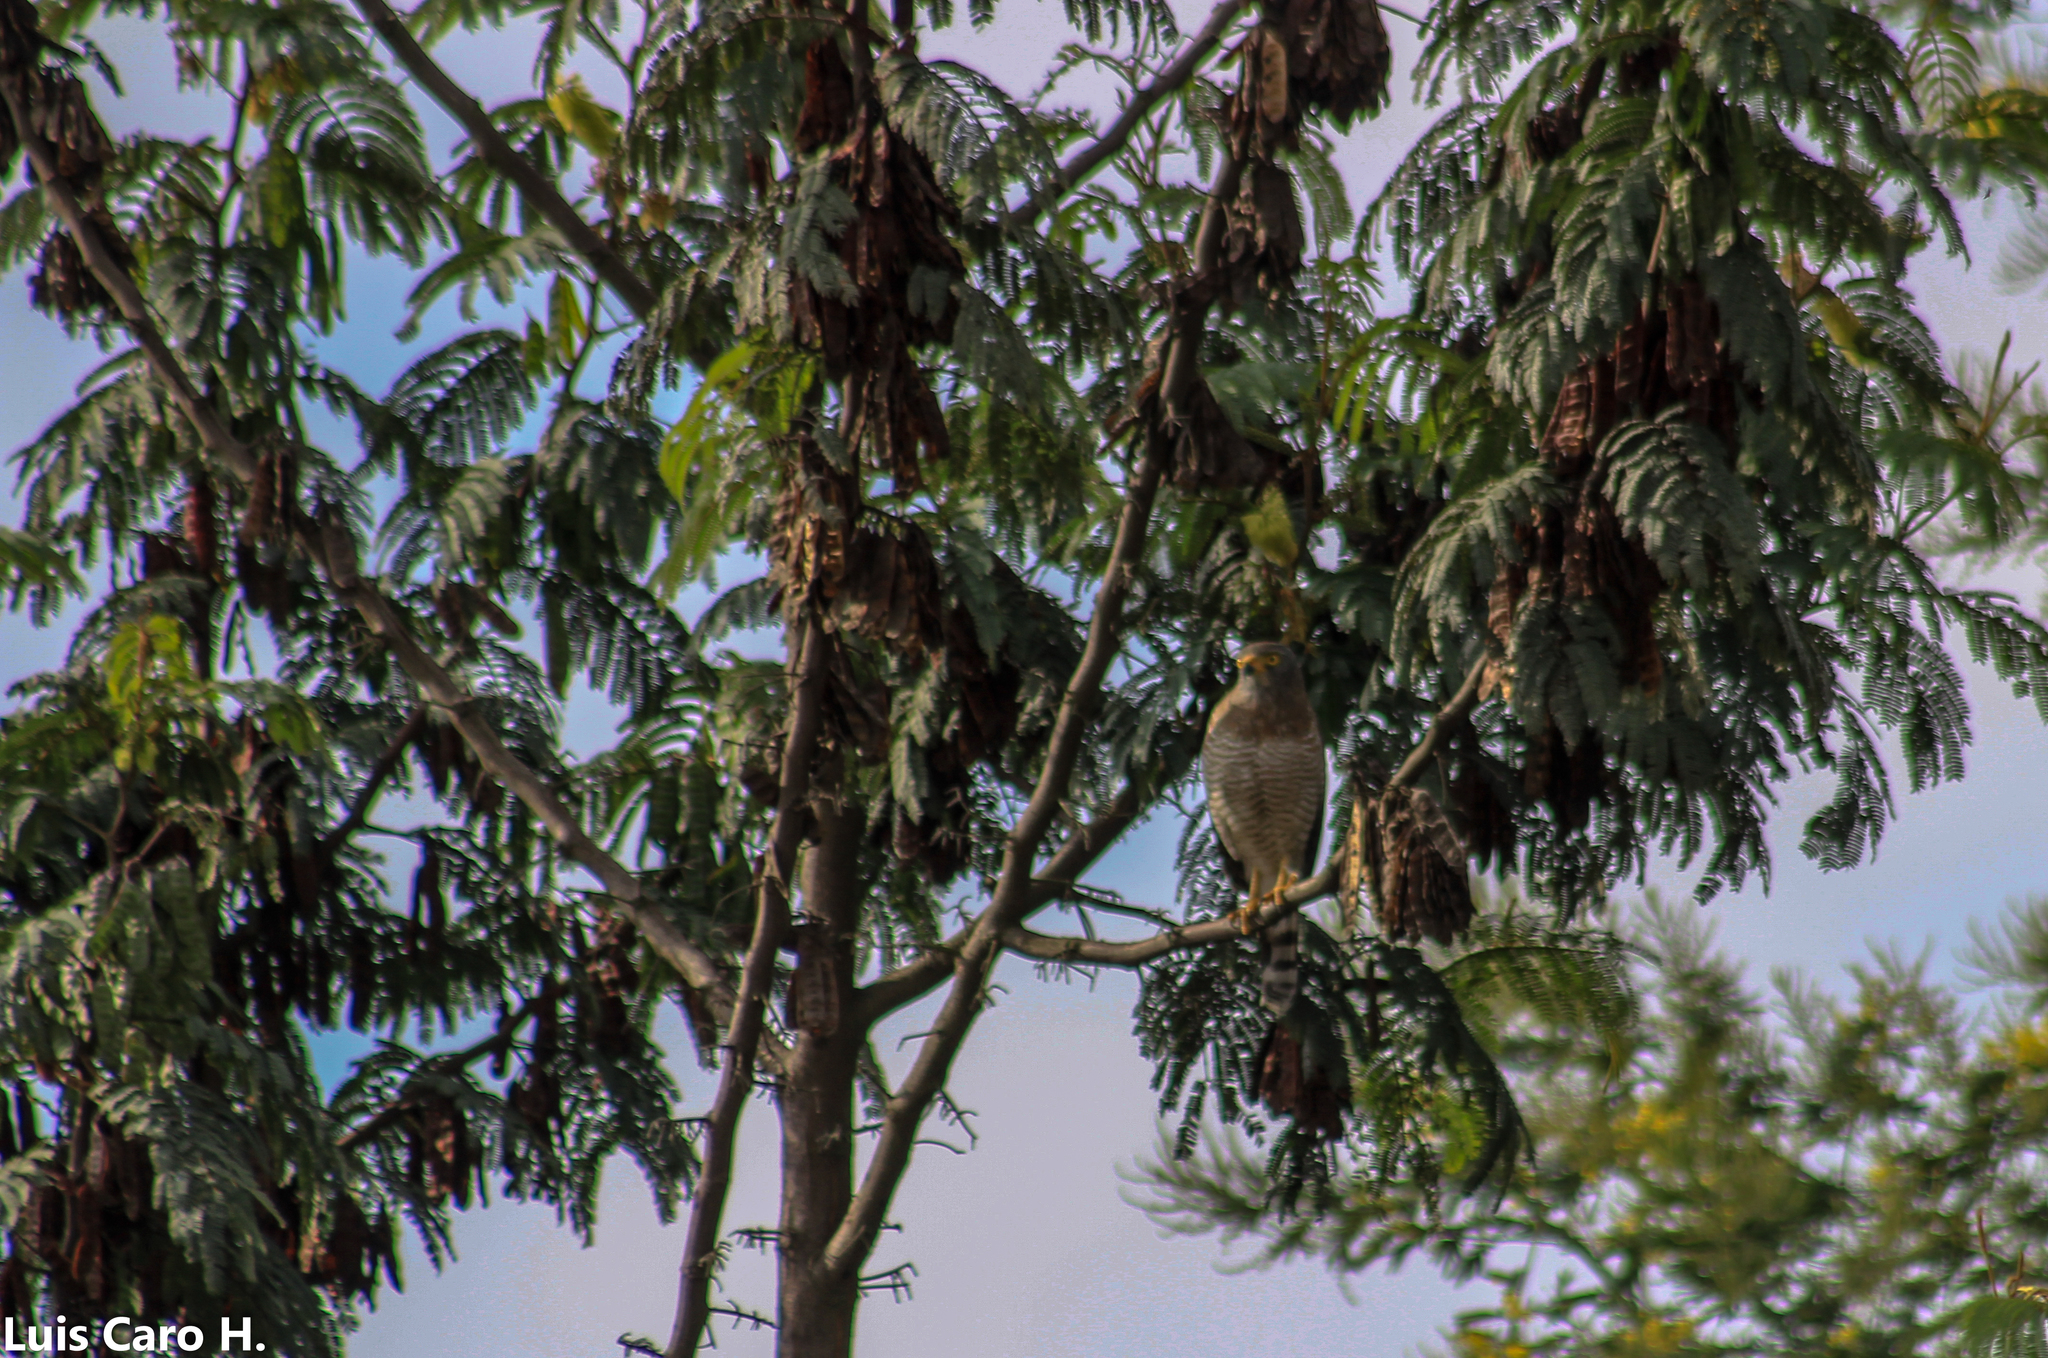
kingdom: Animalia
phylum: Chordata
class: Aves
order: Accipitriformes
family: Accipitridae
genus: Rupornis
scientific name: Rupornis magnirostris
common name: Roadside hawk
